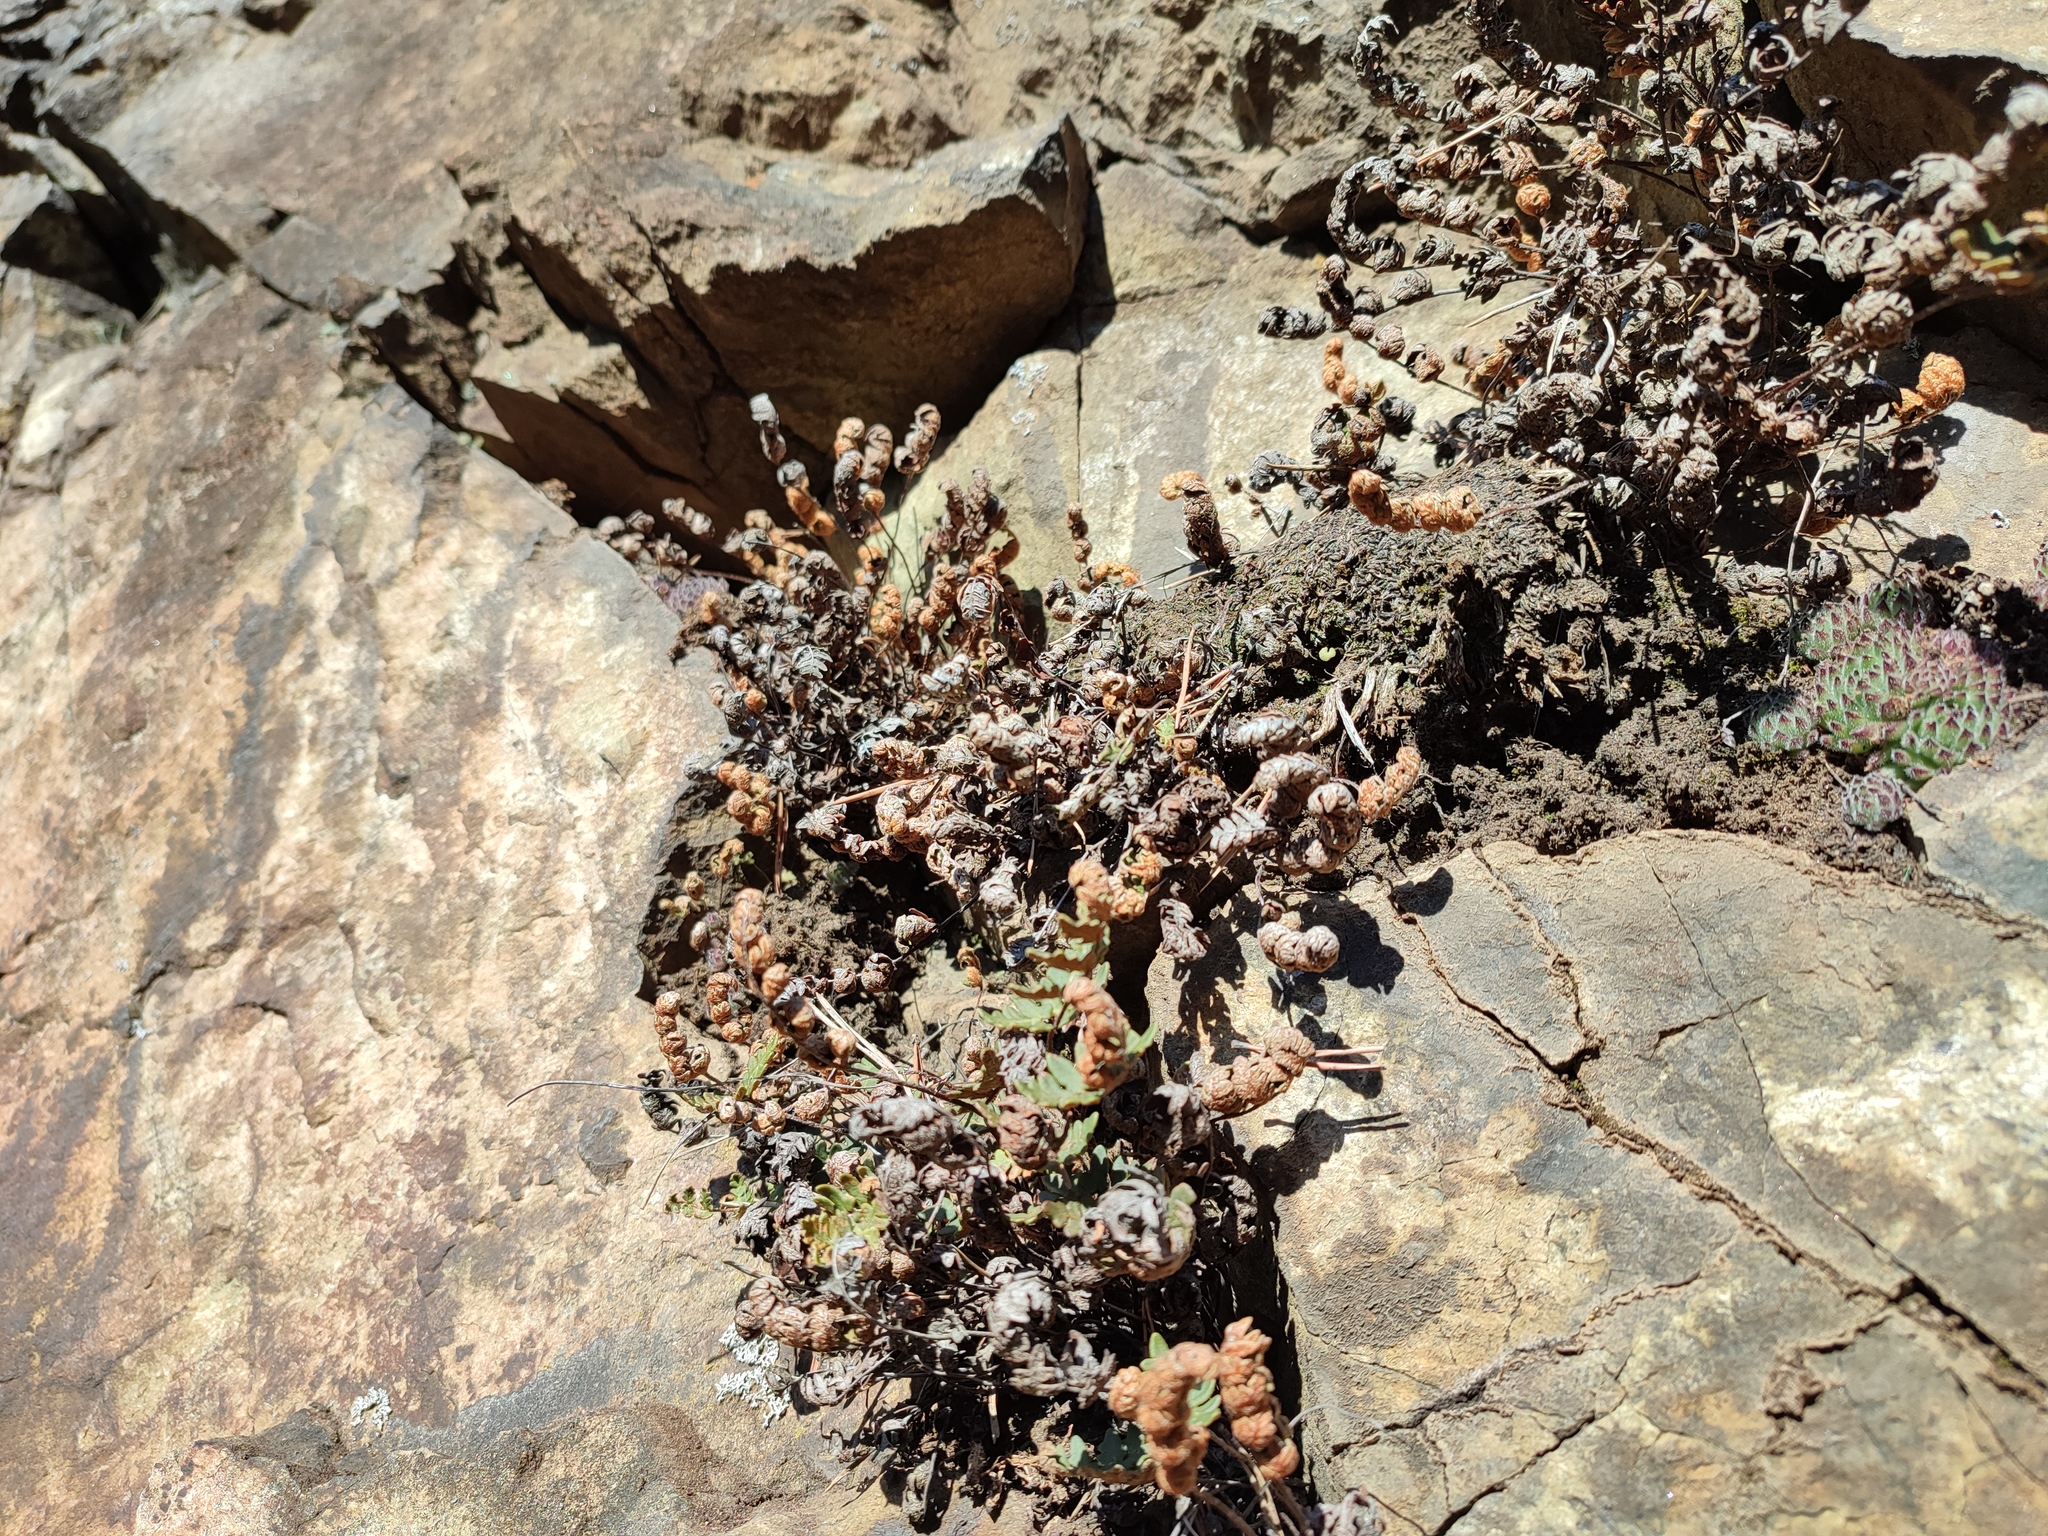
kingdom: Plantae
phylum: Tracheophyta
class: Polypodiopsida
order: Polypodiales
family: Pteridaceae
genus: Paragymnopteris
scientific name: Paragymnopteris marantae
